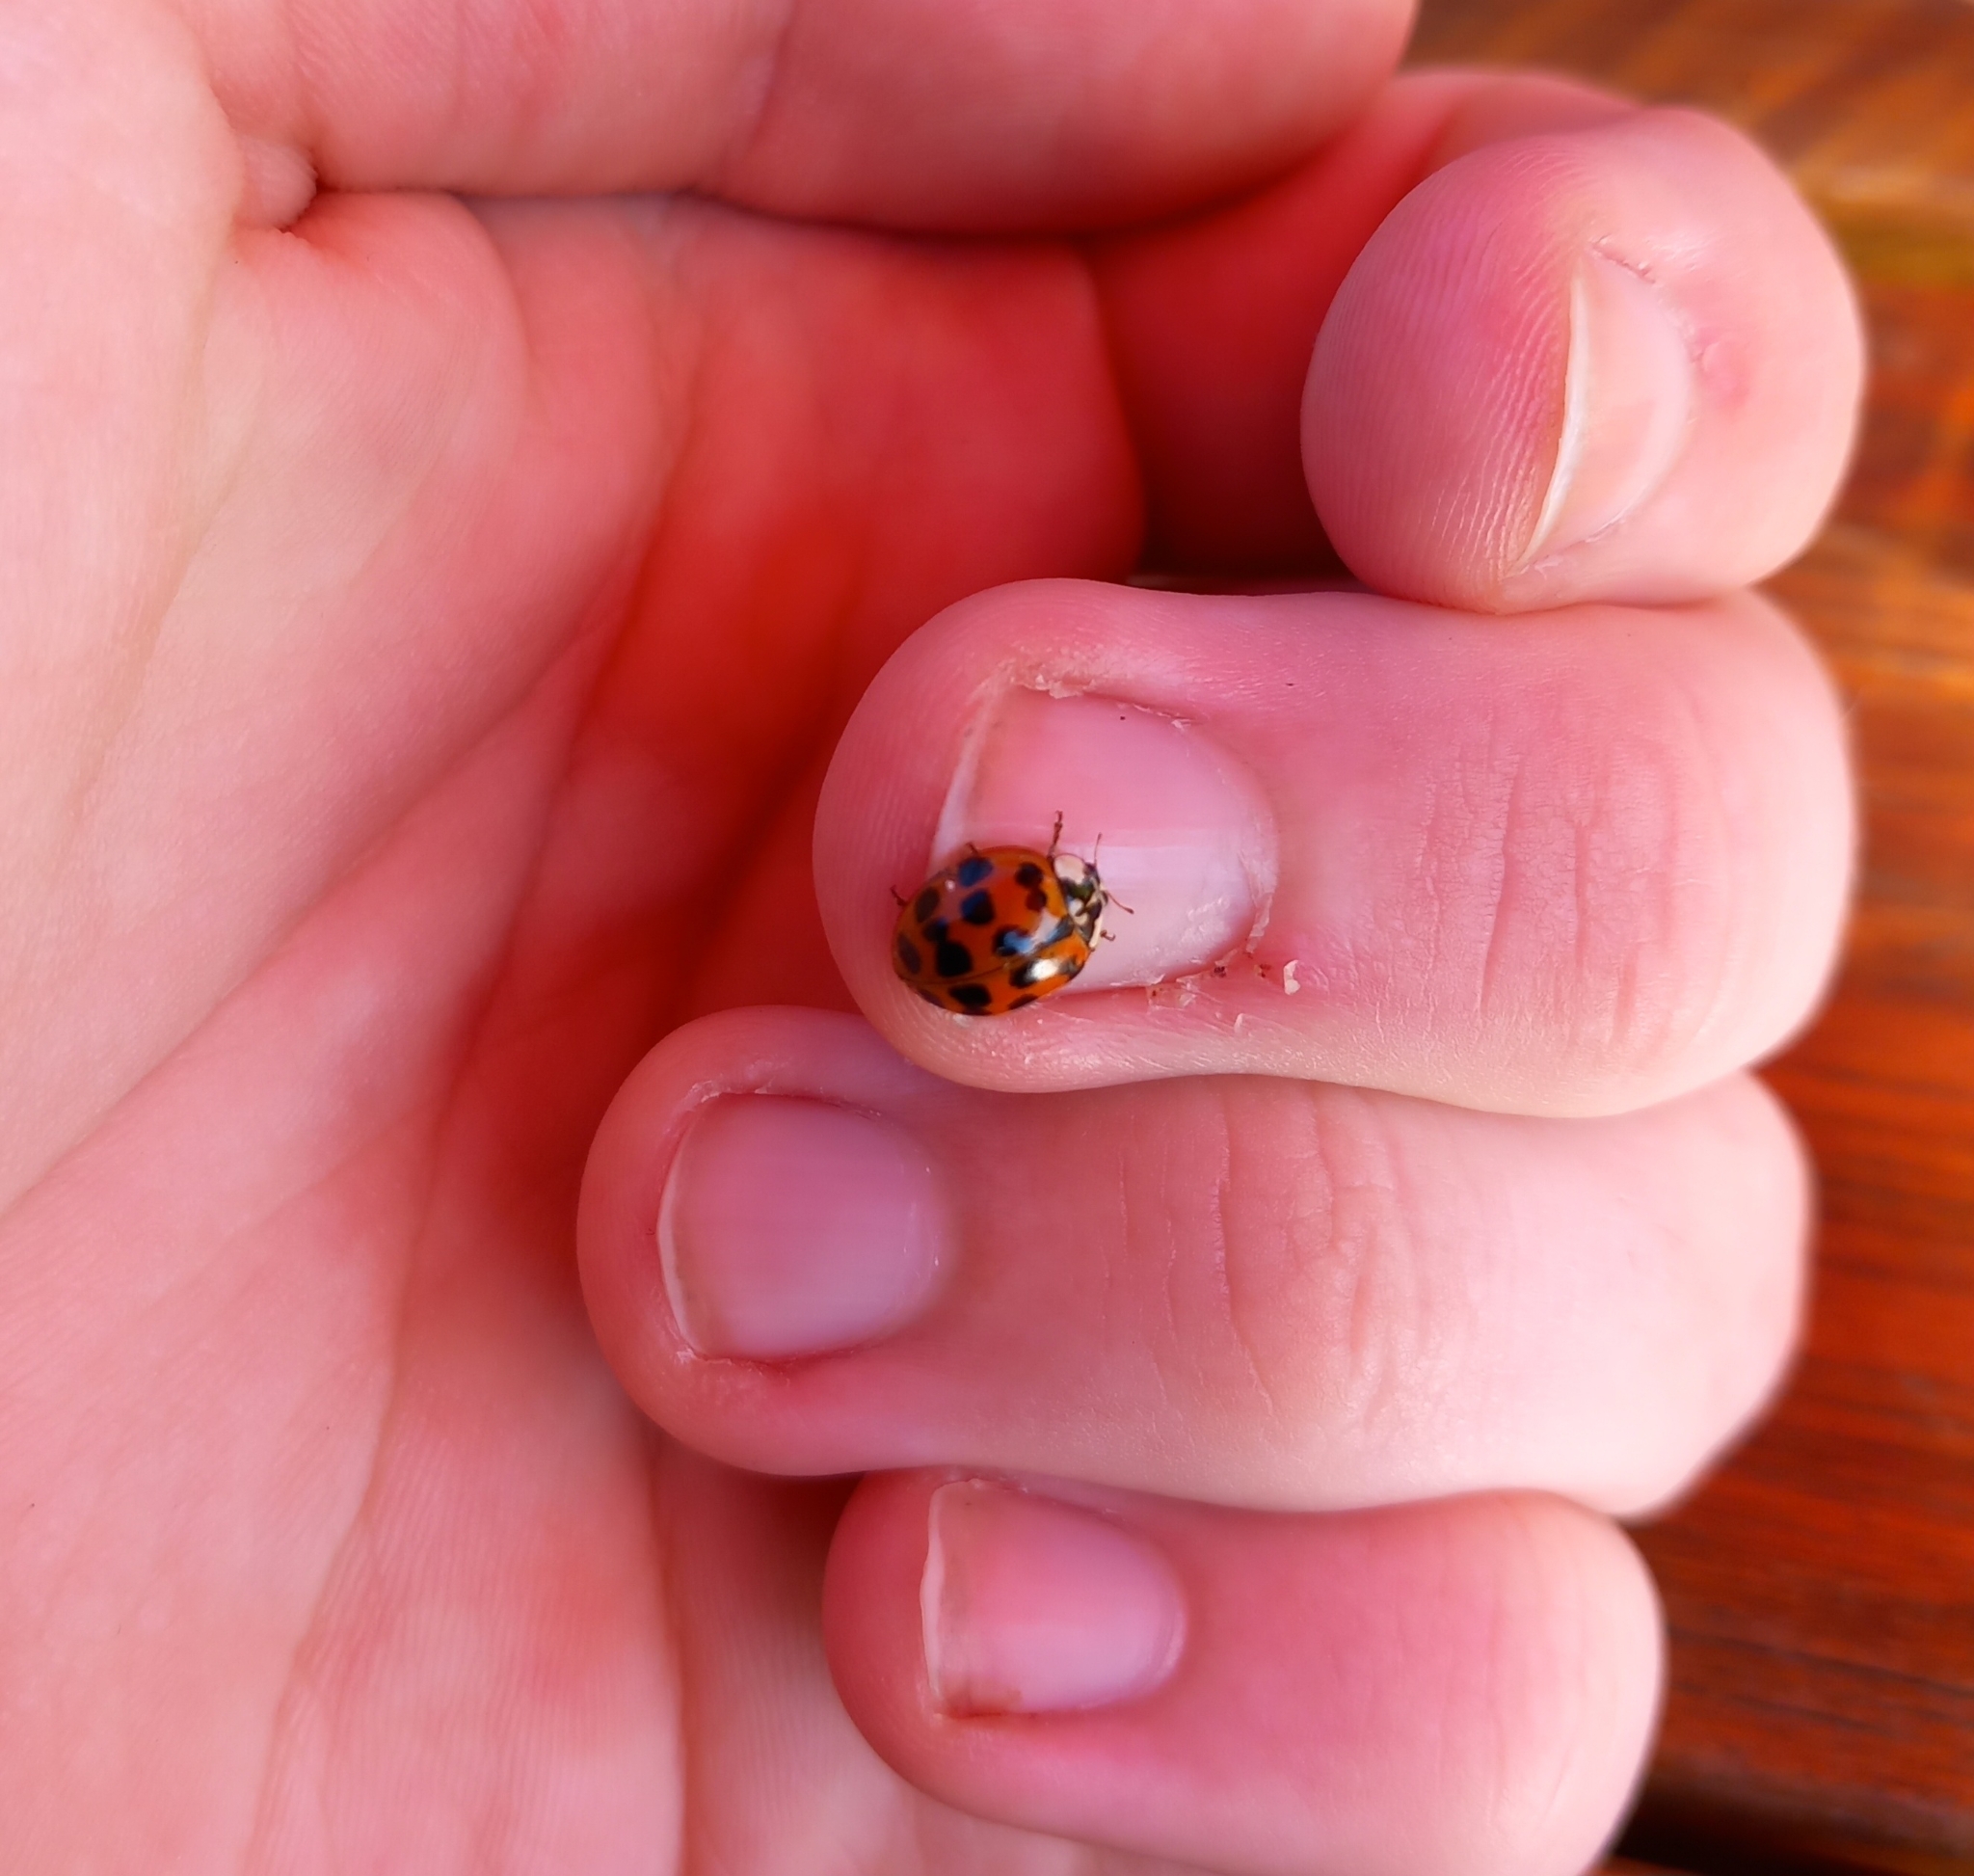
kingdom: Animalia
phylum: Arthropoda
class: Insecta
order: Coleoptera
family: Coccinellidae
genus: Harmonia
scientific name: Harmonia axyridis
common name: Harlequin ladybird
